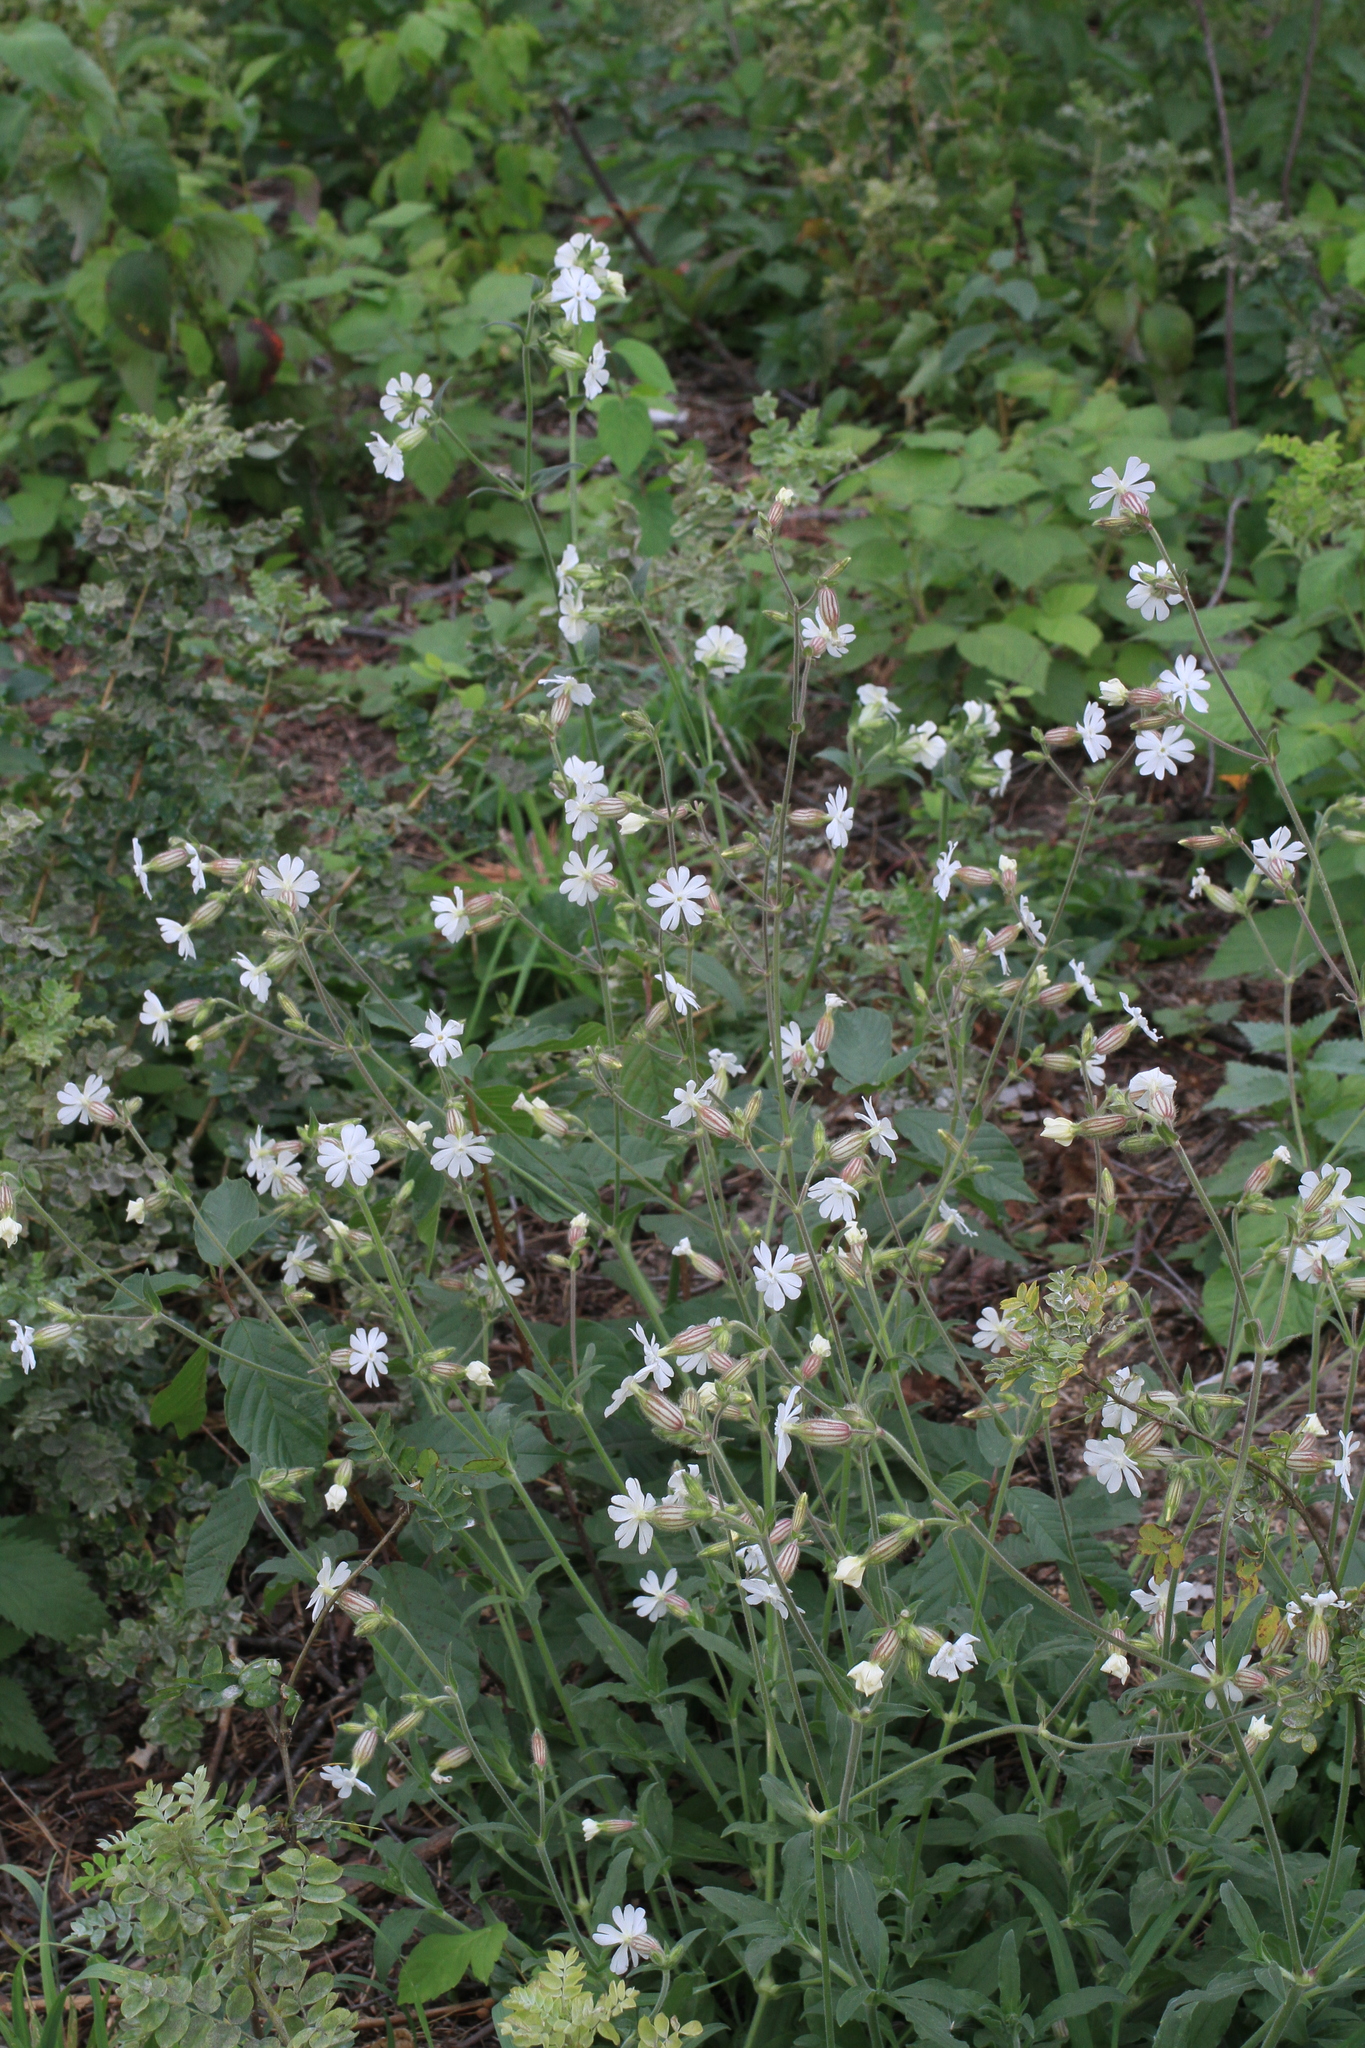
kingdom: Plantae
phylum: Tracheophyta
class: Magnoliopsida
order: Caryophyllales
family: Caryophyllaceae
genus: Silene
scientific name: Silene latifolia
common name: White campion
